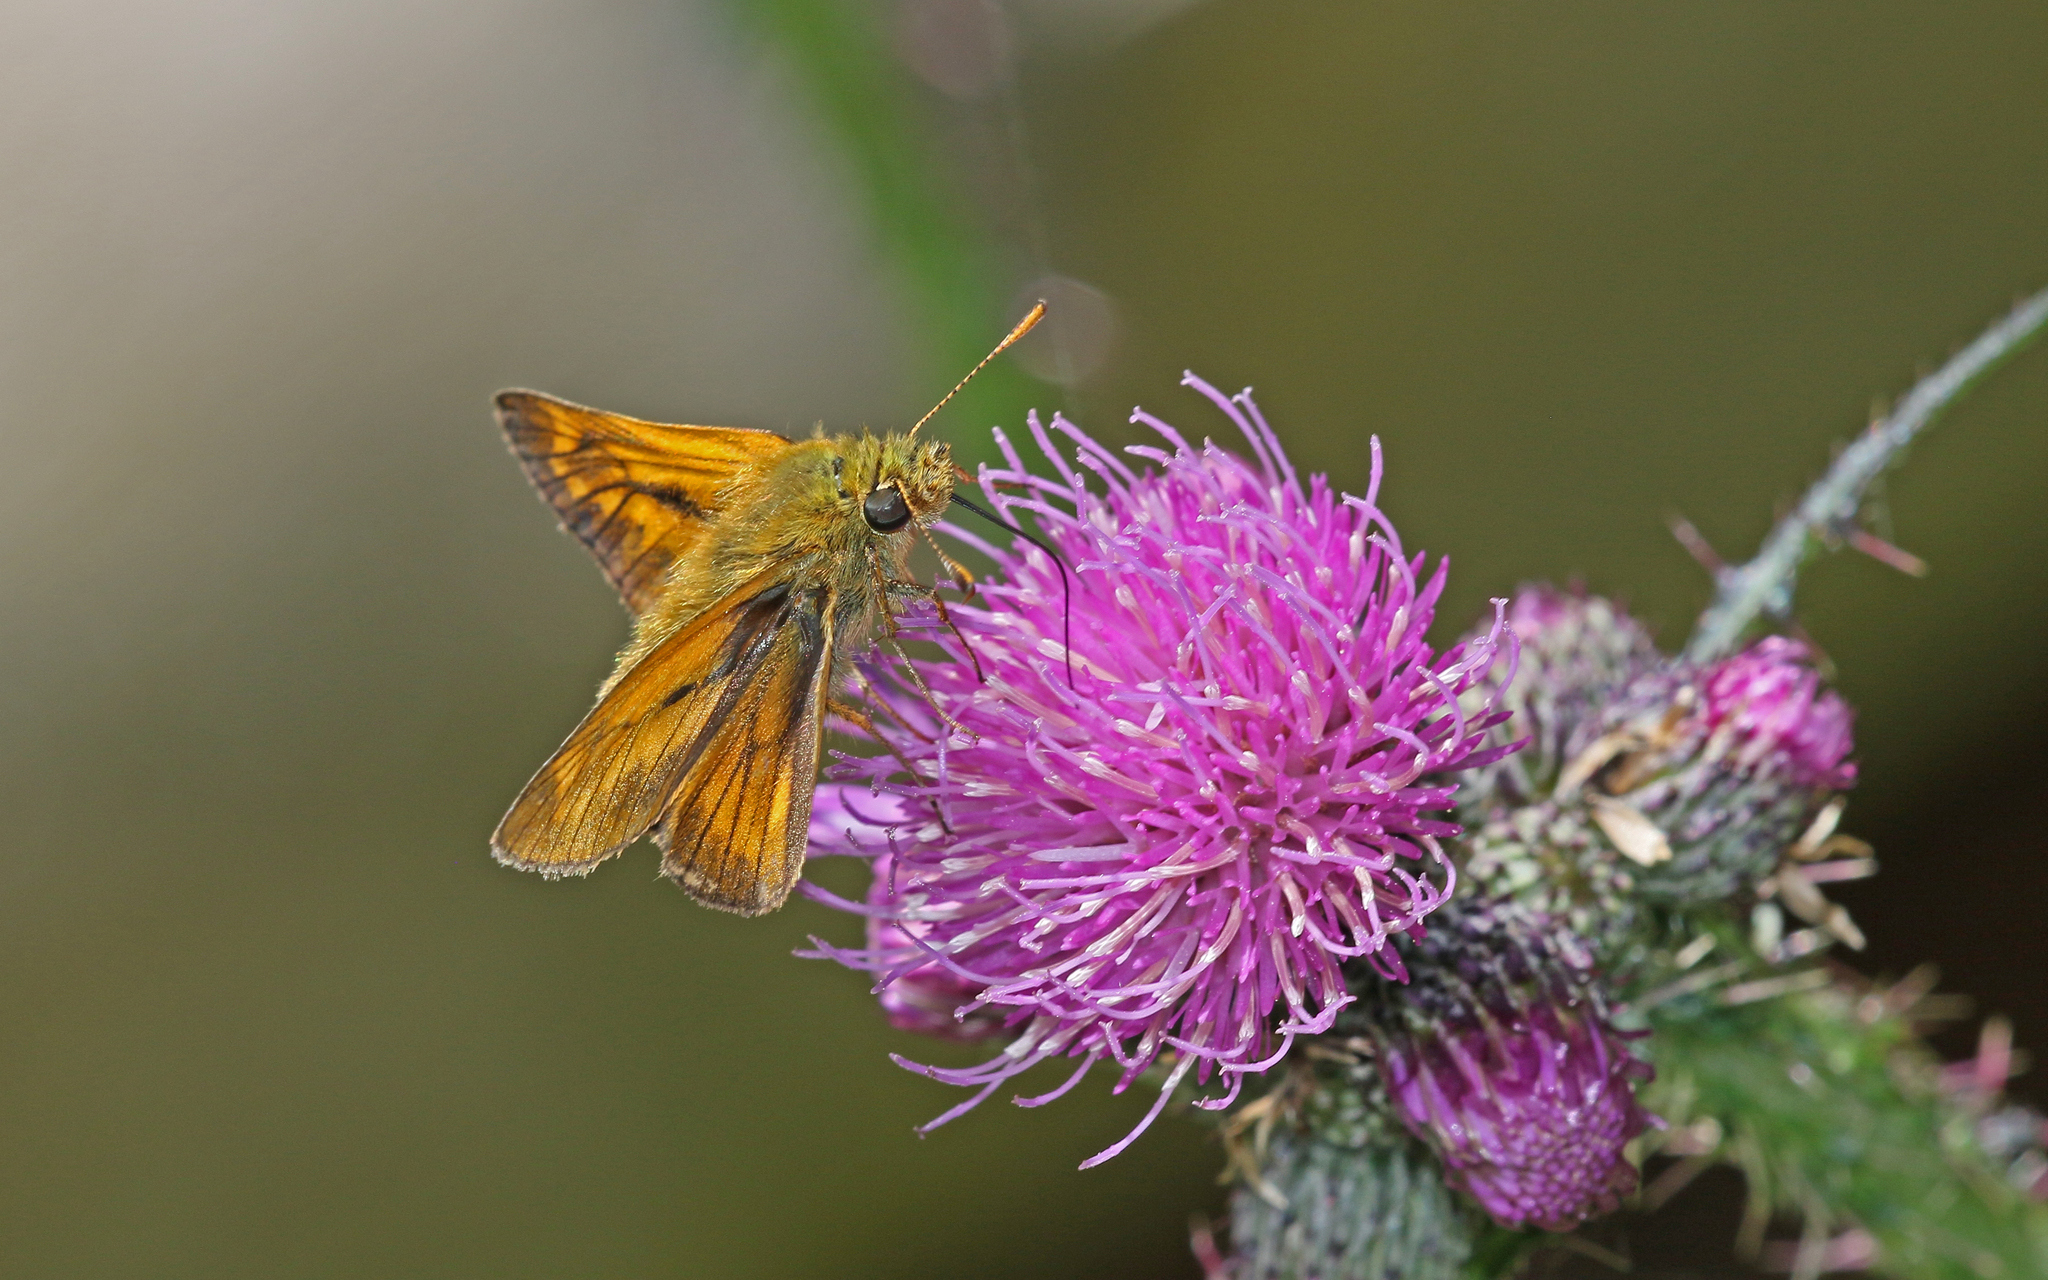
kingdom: Animalia
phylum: Arthropoda
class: Insecta
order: Lepidoptera
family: Hesperiidae
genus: Ochlodes
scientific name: Ochlodes venata
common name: Large skipper
